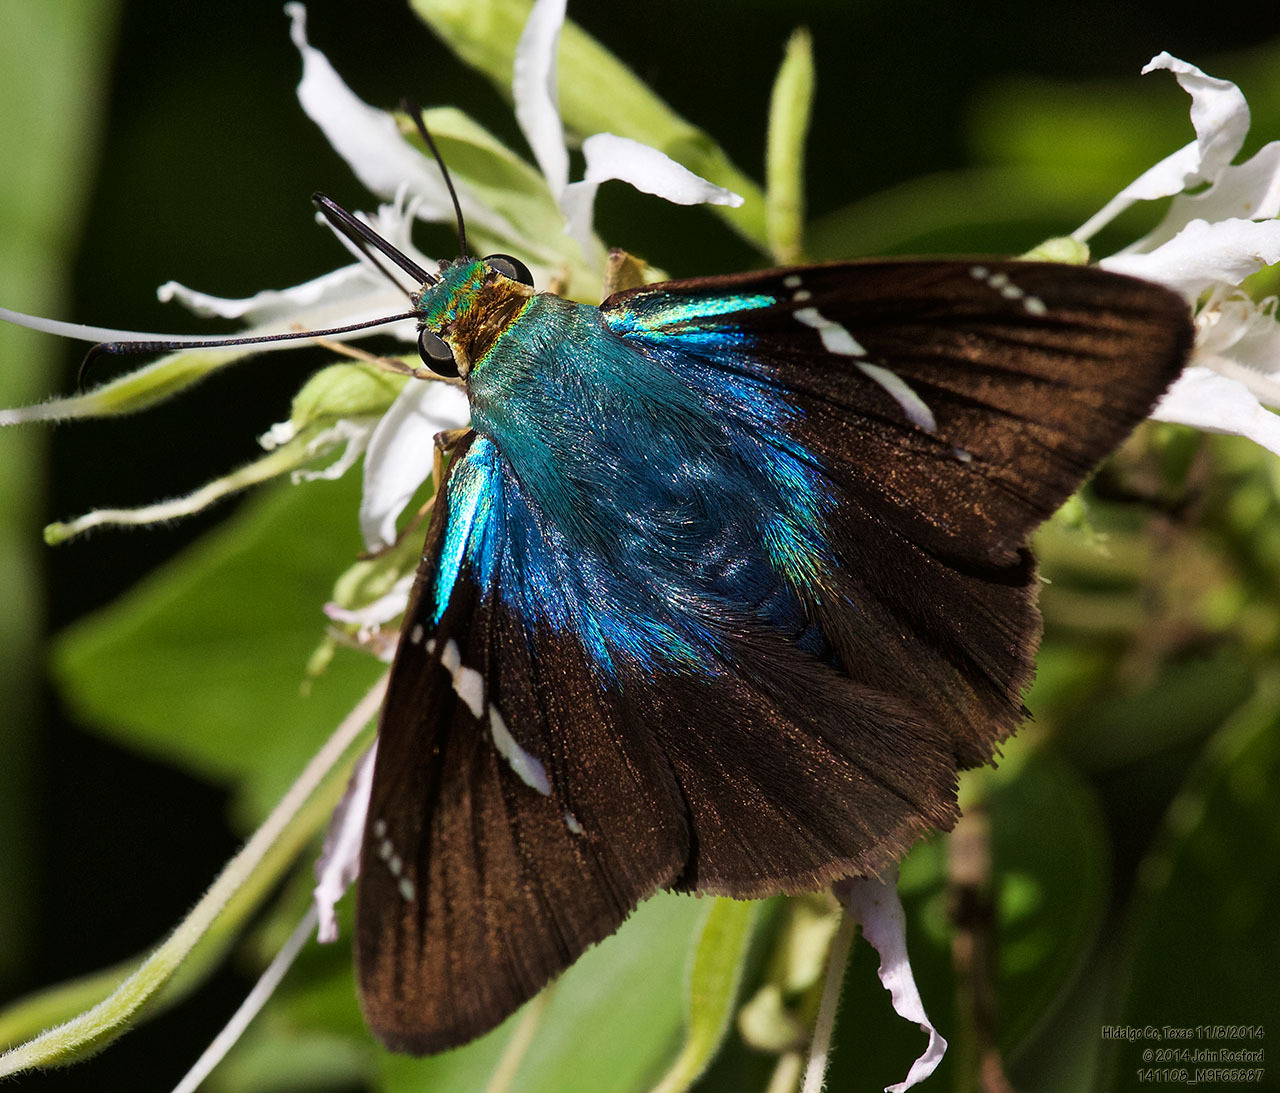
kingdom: Animalia
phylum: Arthropoda
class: Insecta
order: Lepidoptera
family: Hesperiidae
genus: Astraptes
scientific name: Astraptes fulgerator
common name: Two-barred flasher
